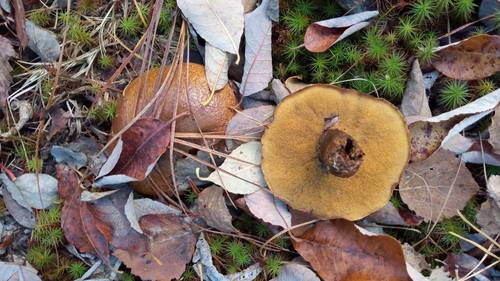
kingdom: Fungi
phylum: Basidiomycota
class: Agaricomycetes
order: Boletales
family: Suillaceae
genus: Suillus
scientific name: Suillus luteus
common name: Slippery jack
